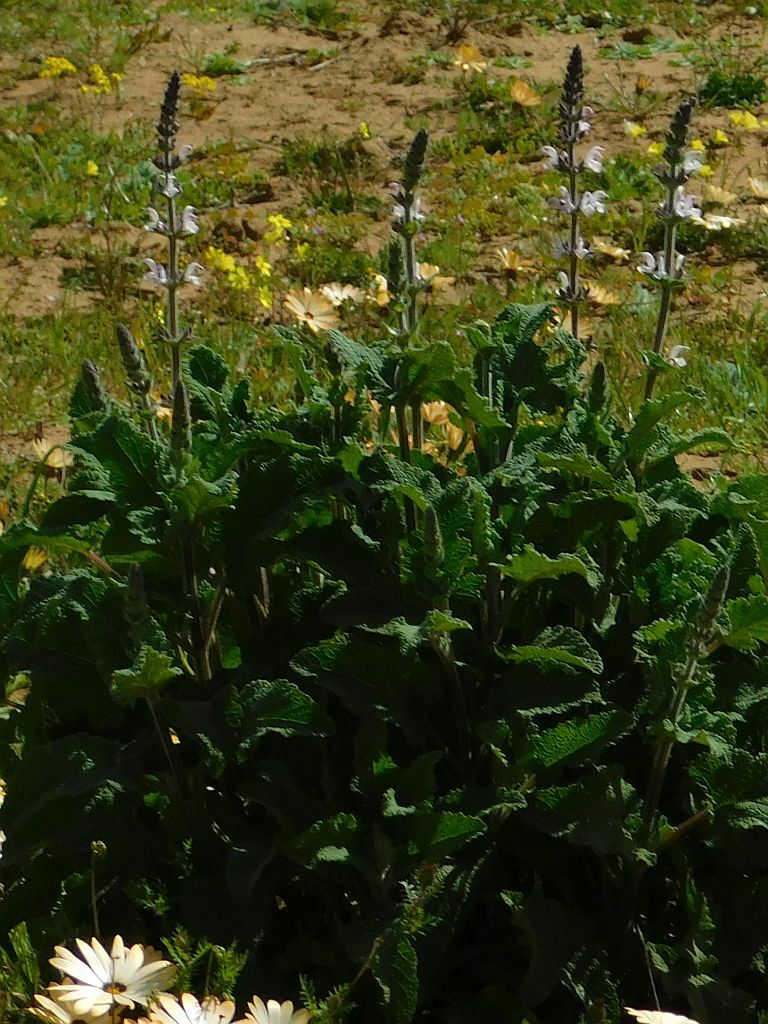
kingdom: Plantae
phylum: Tracheophyta
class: Magnoliopsida
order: Lamiales
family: Lamiaceae
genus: Salvia
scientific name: Salvia disermas
